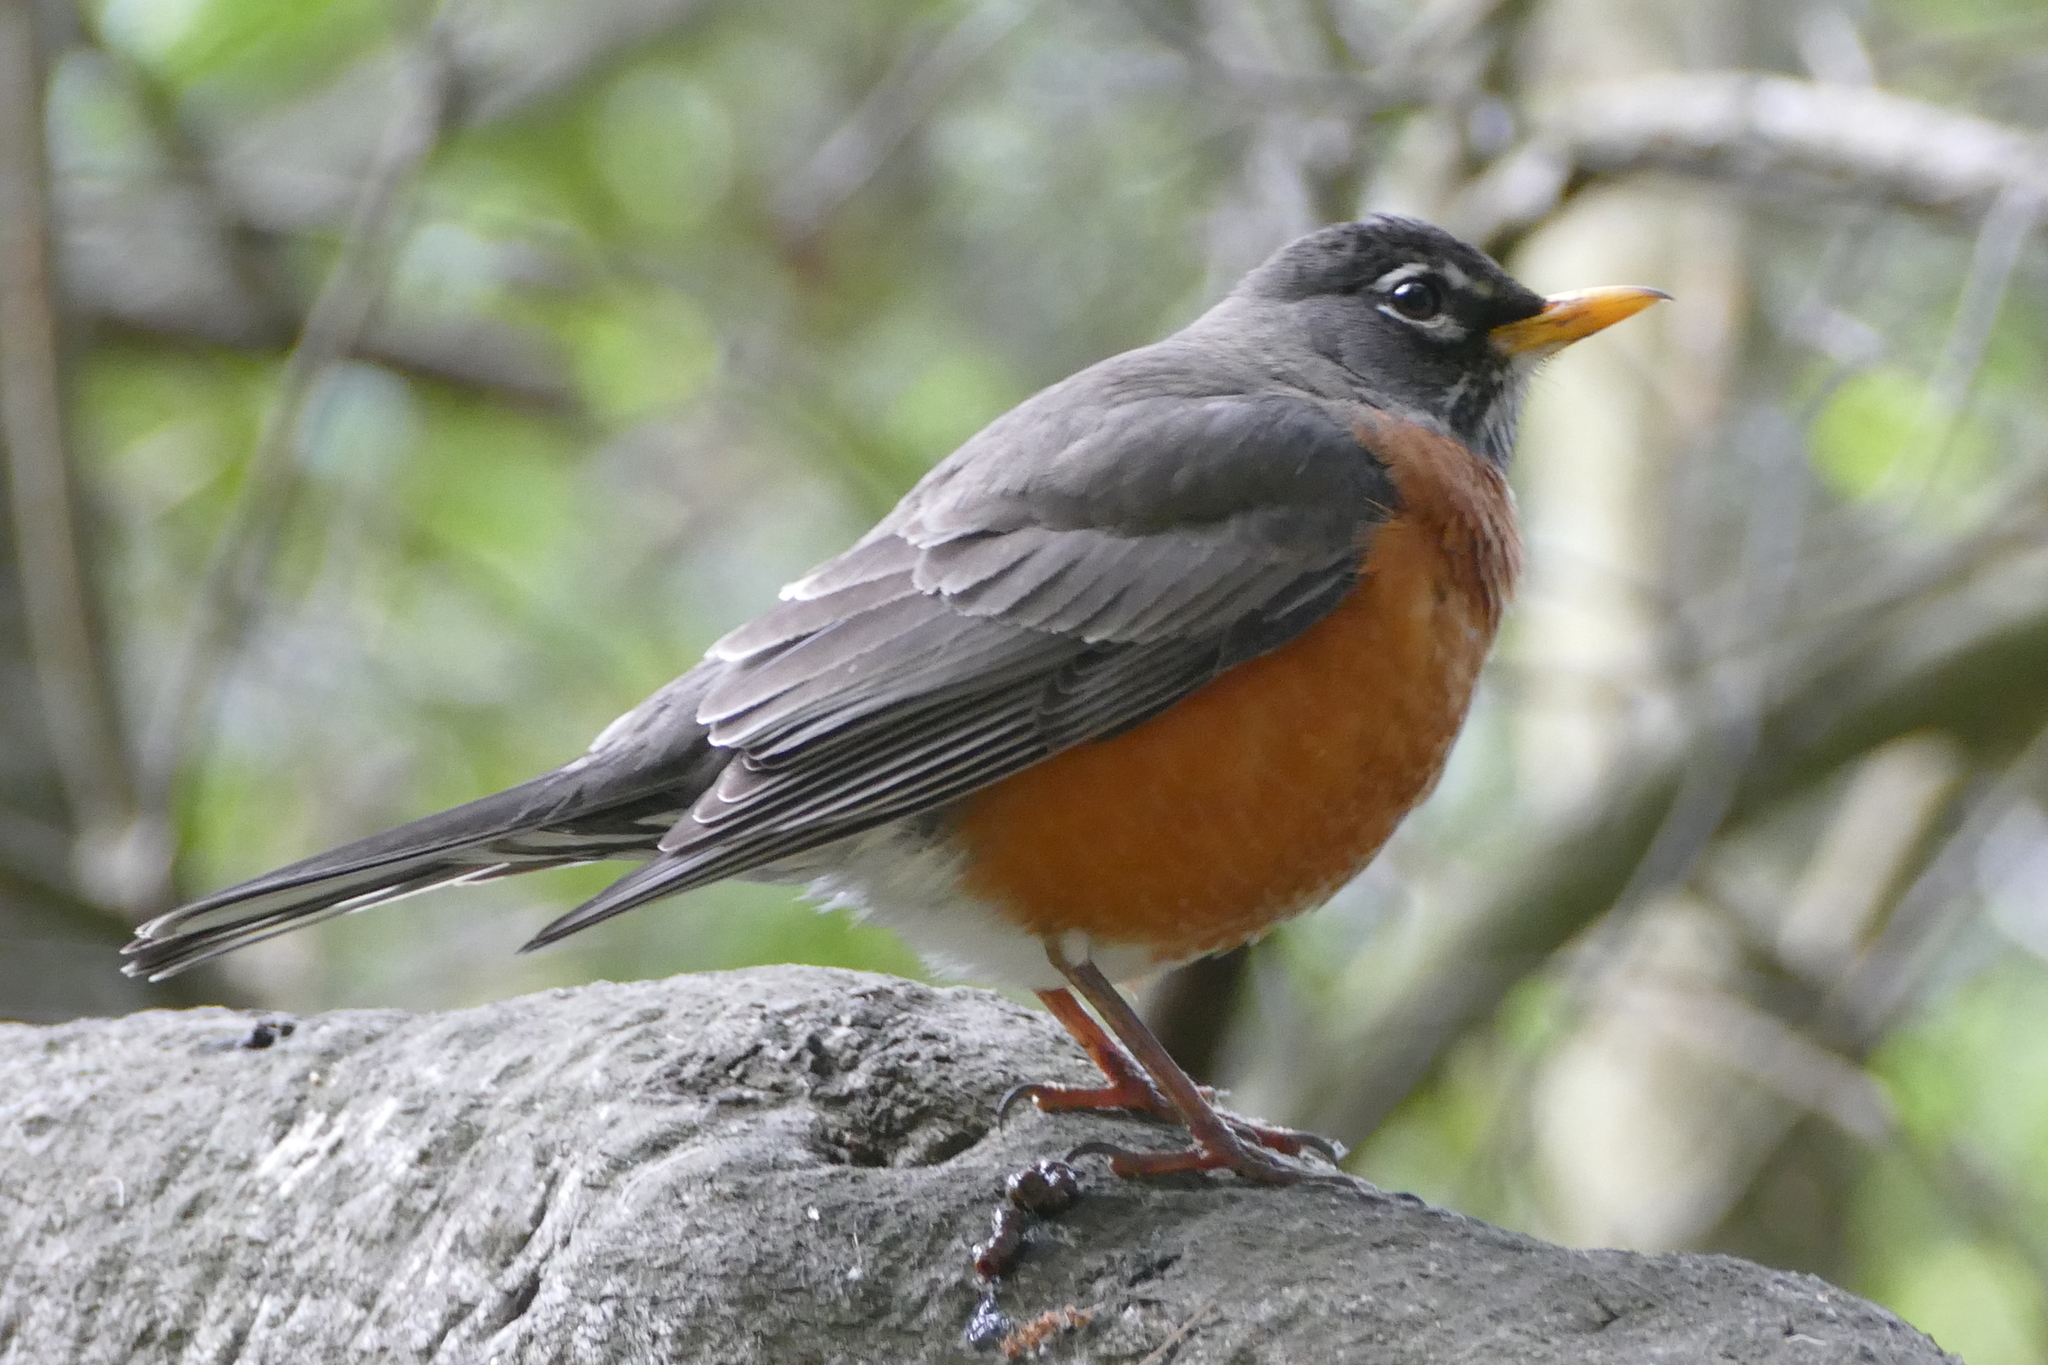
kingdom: Animalia
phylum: Chordata
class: Aves
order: Passeriformes
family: Turdidae
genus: Turdus
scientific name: Turdus migratorius
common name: American robin
